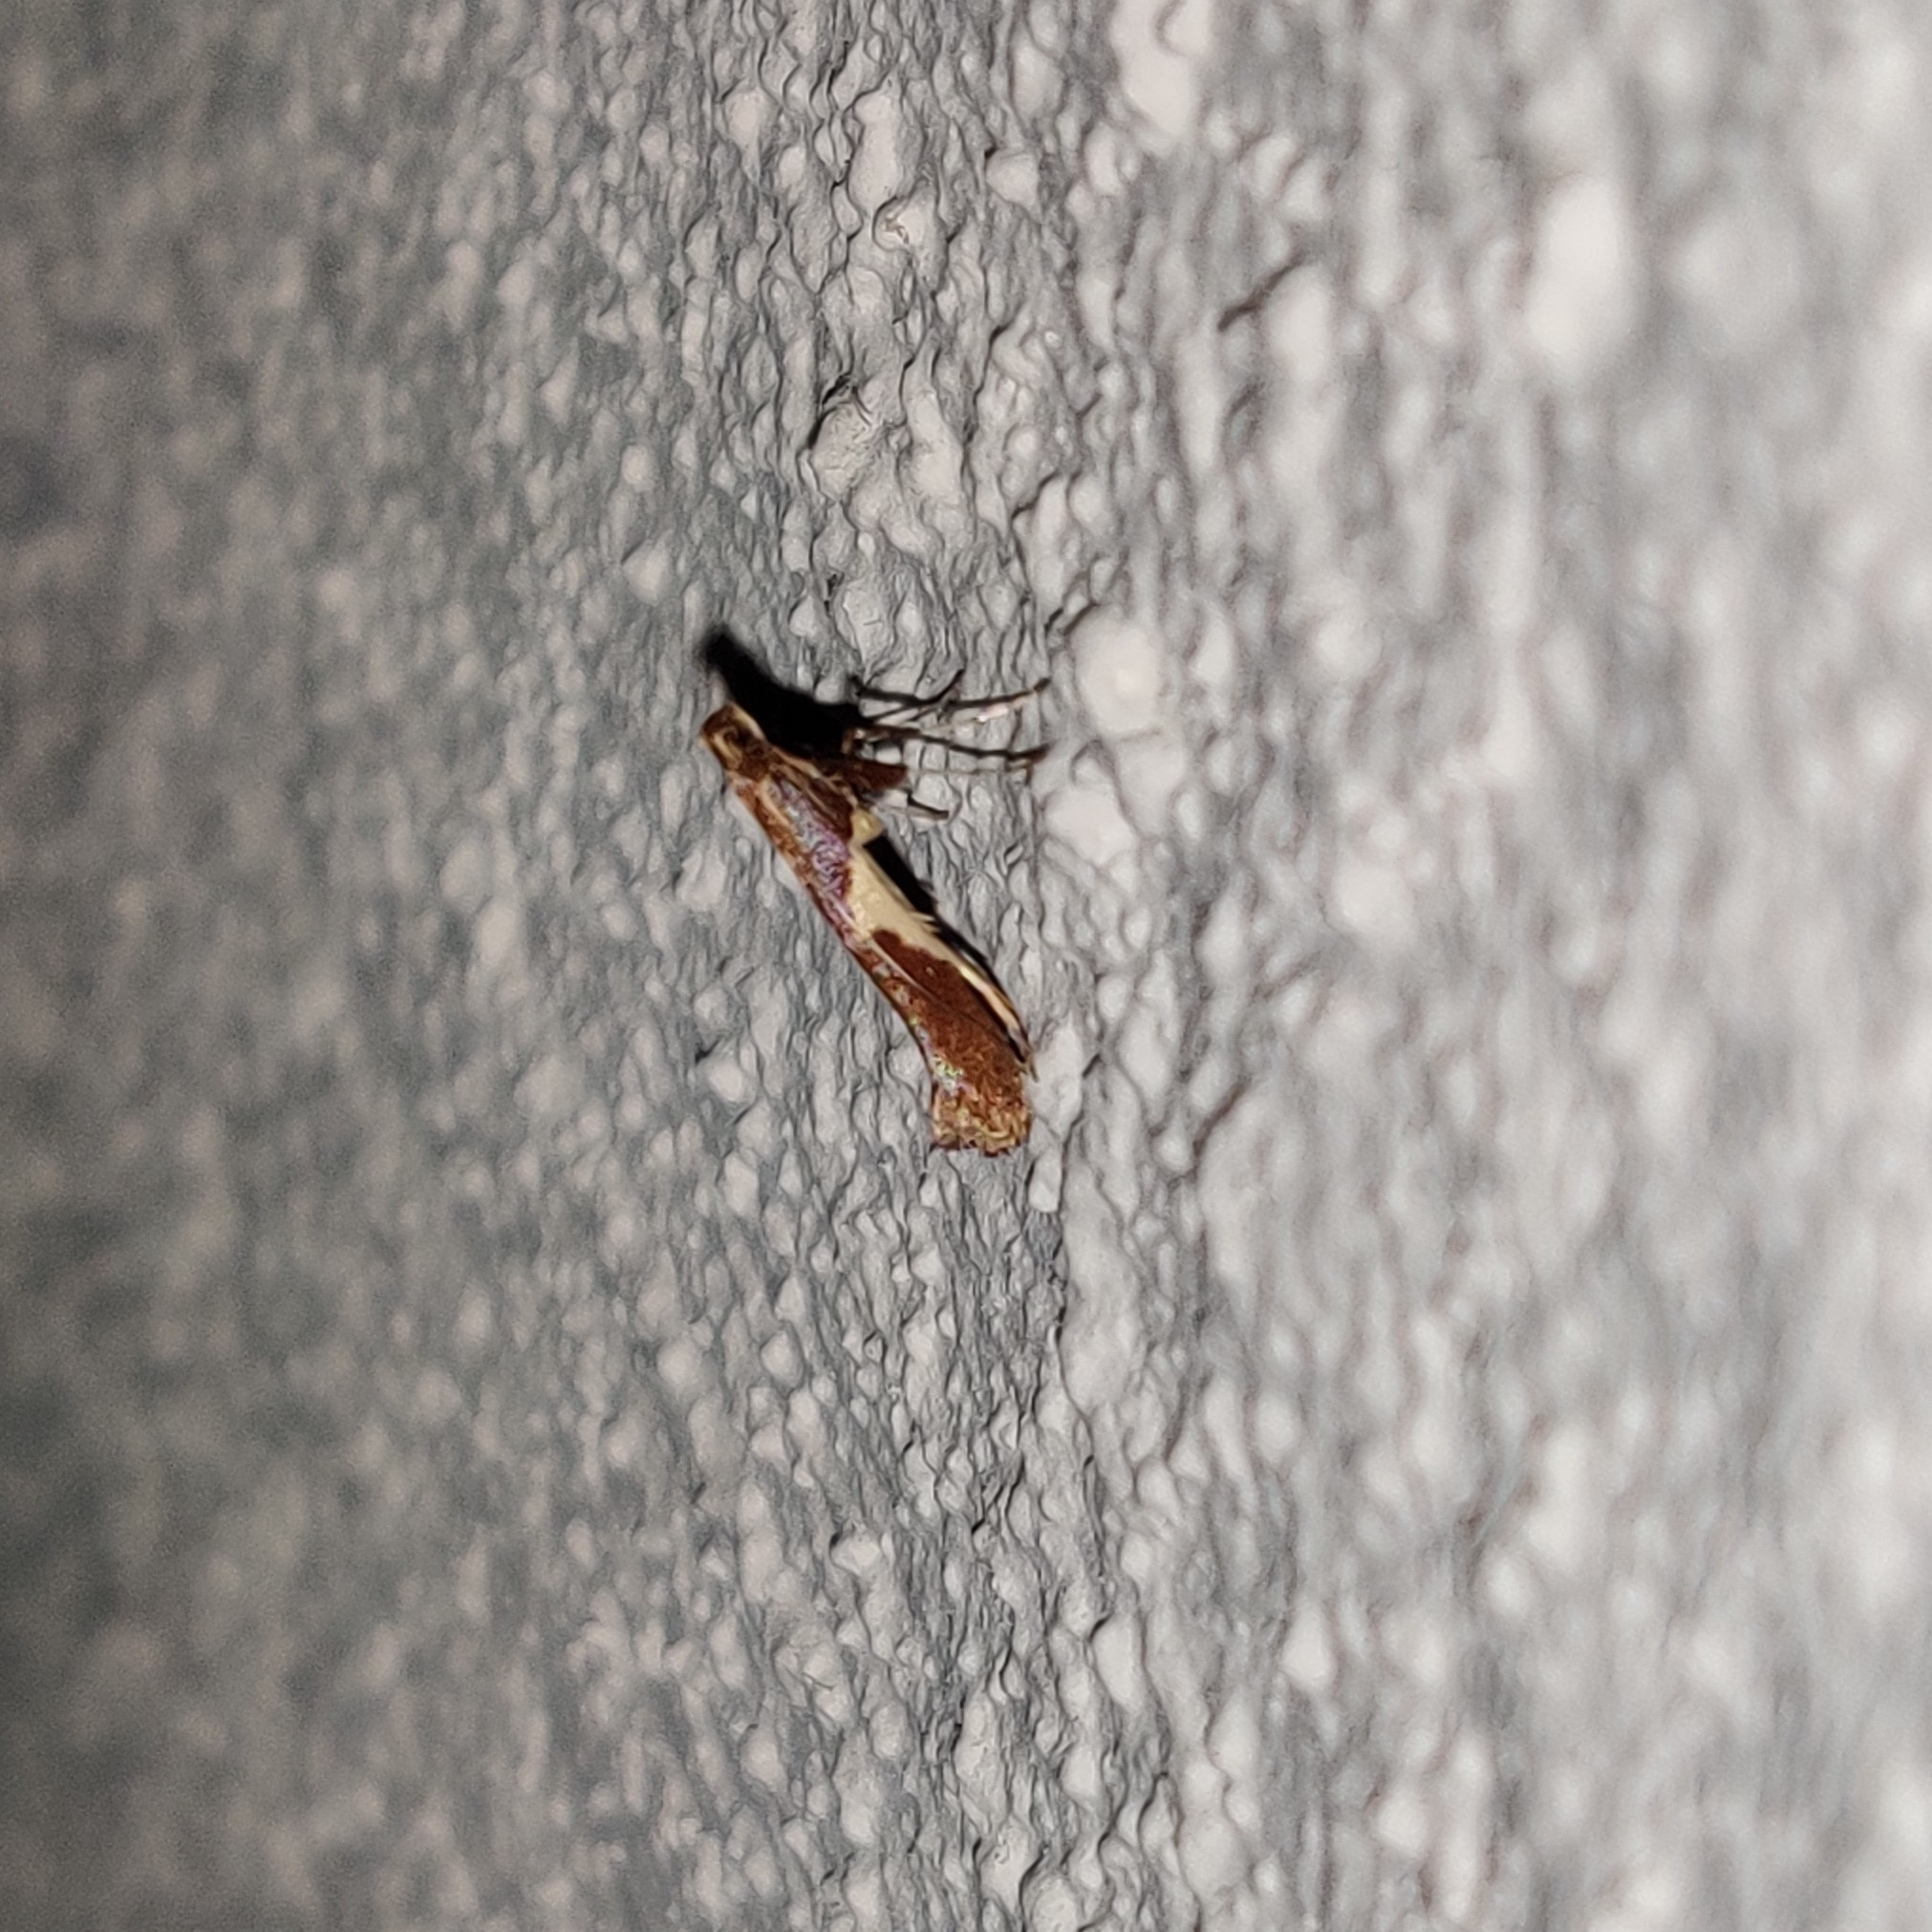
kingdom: Animalia
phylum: Arthropoda
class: Insecta
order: Lepidoptera
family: Gracillariidae
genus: Caloptilia
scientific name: Caloptilia stigmatella
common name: White-triangle slender
